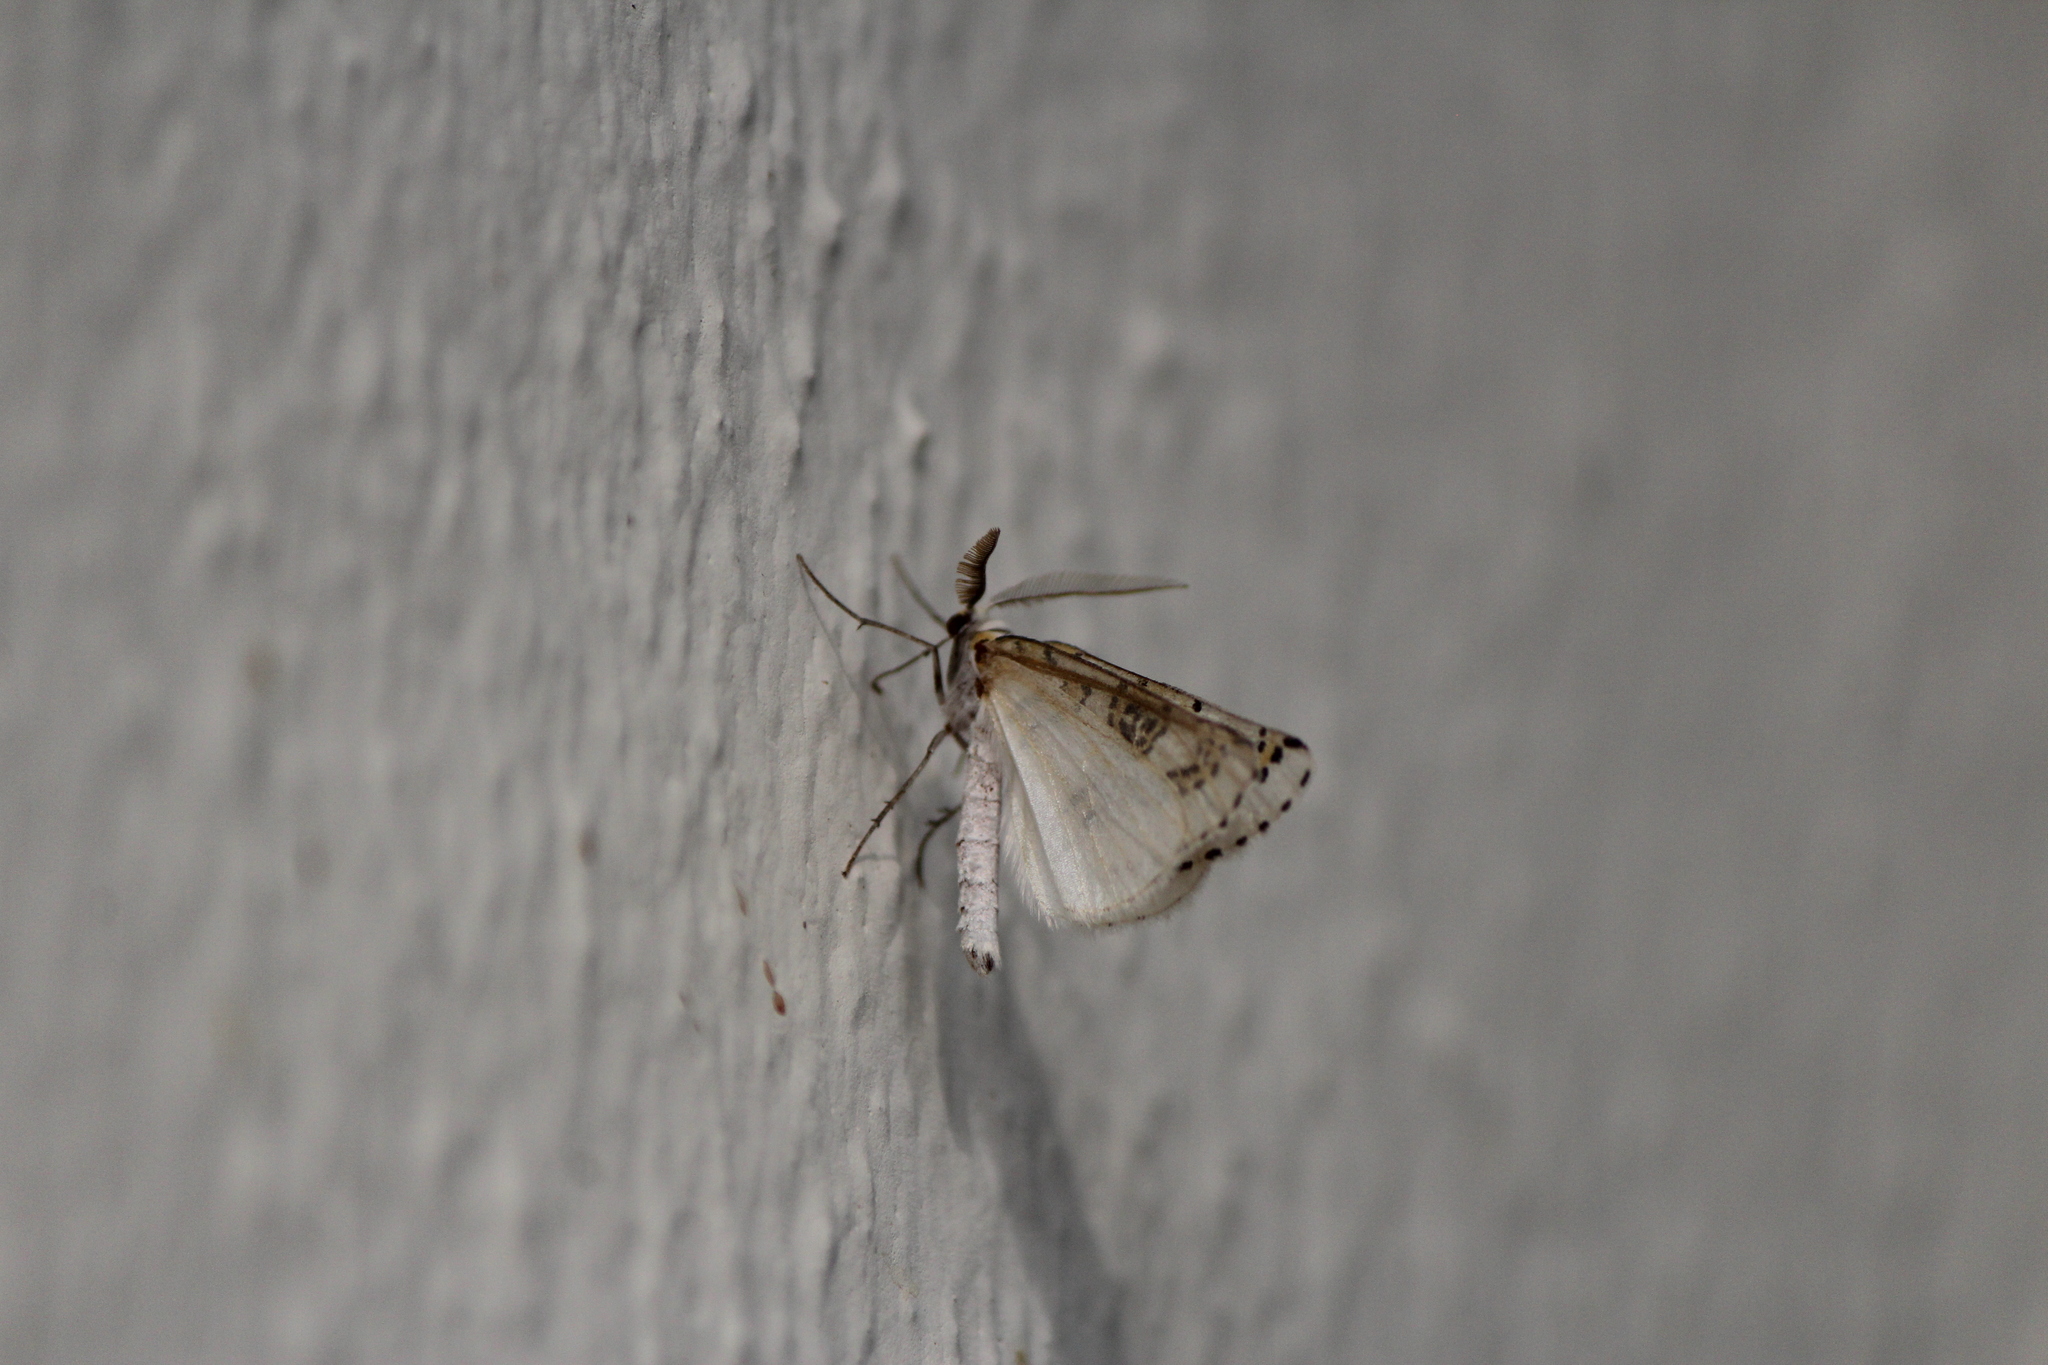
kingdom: Animalia
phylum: Arthropoda
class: Insecta
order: Lepidoptera
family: Geometridae
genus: Philtraea
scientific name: Philtraea mexicana
